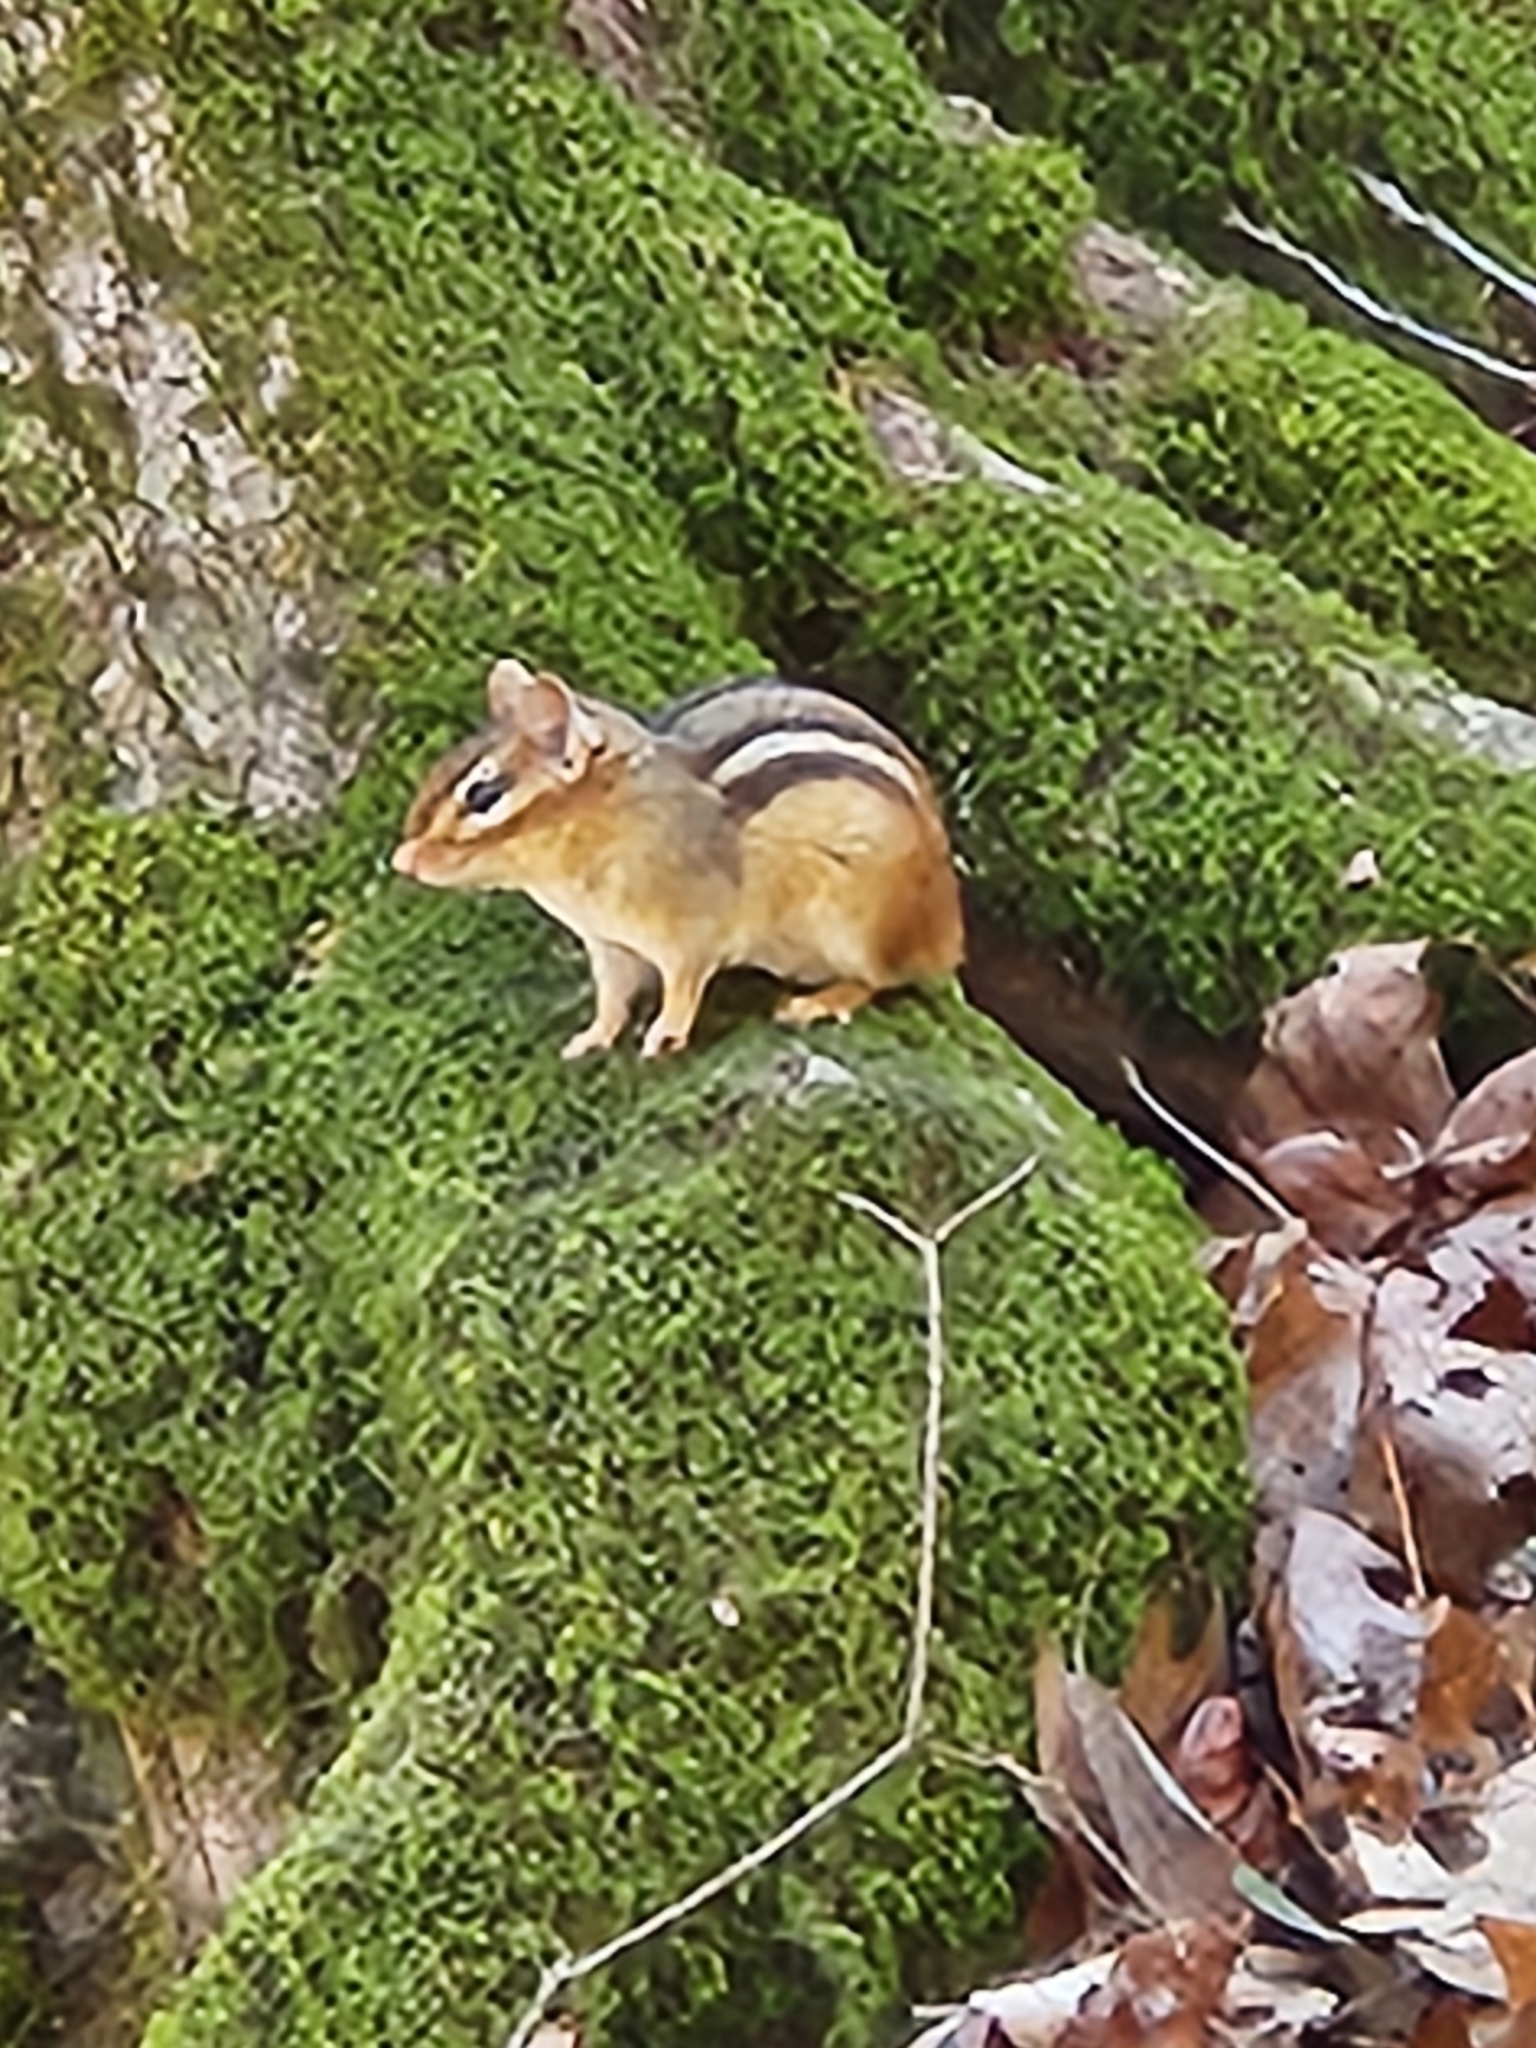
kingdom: Animalia
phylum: Chordata
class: Mammalia
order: Rodentia
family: Sciuridae
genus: Tamias
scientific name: Tamias striatus
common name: Eastern chipmunk
